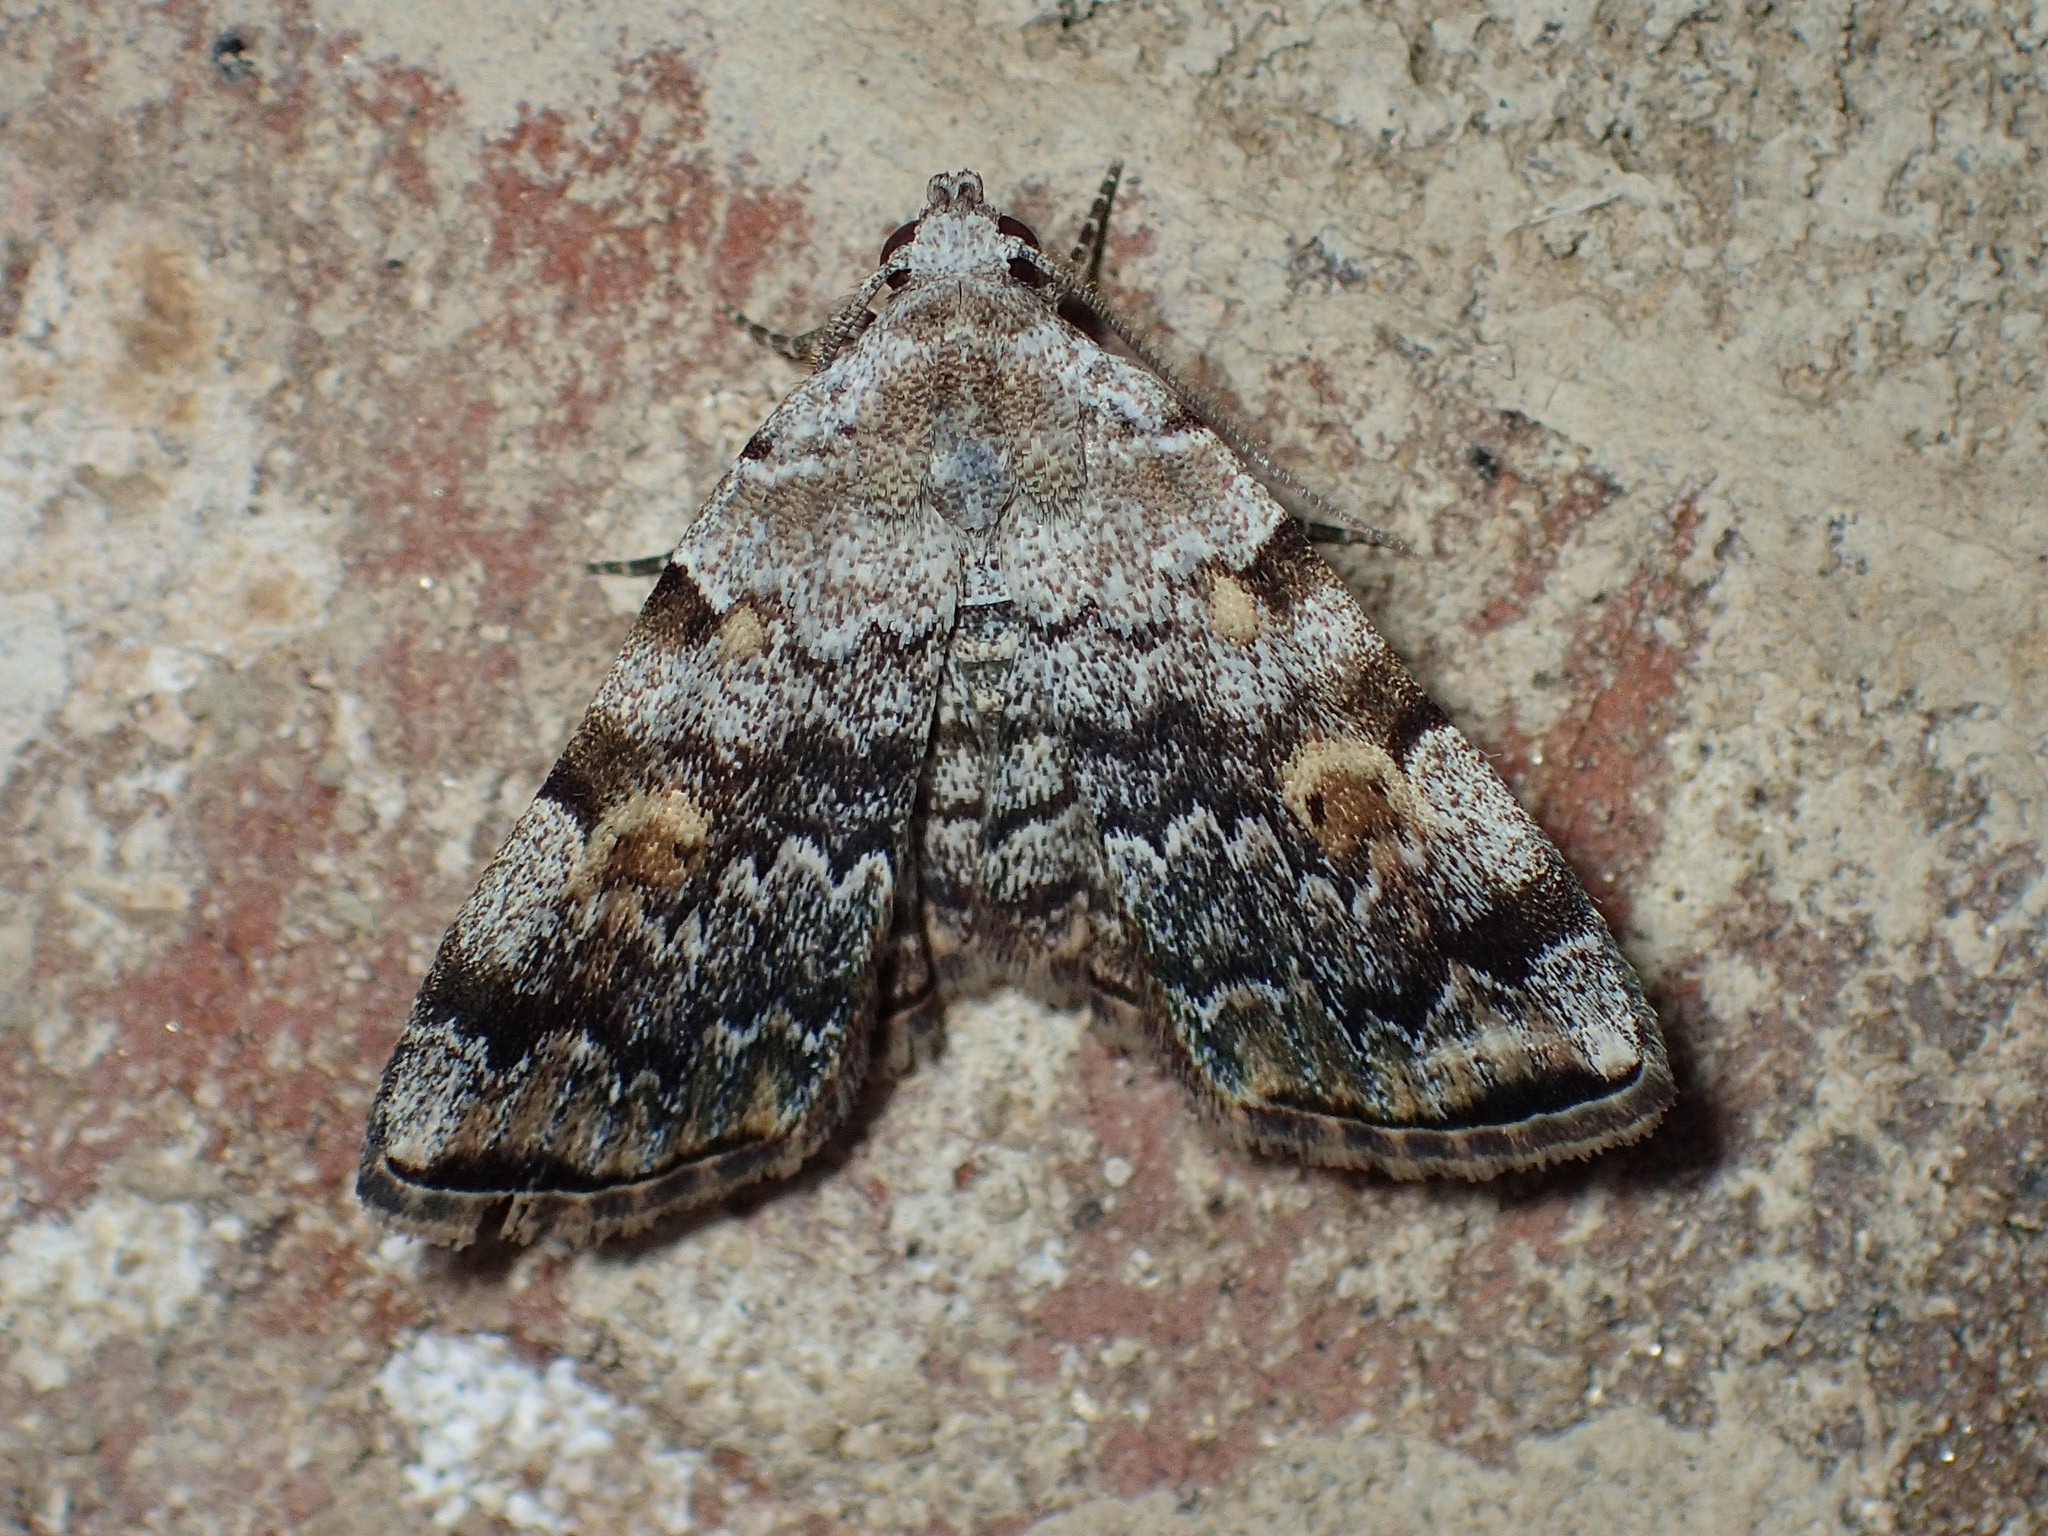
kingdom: Animalia
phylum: Arthropoda
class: Insecta
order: Lepidoptera
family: Erebidae
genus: Idia
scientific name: Idia americalis
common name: American idia moth
